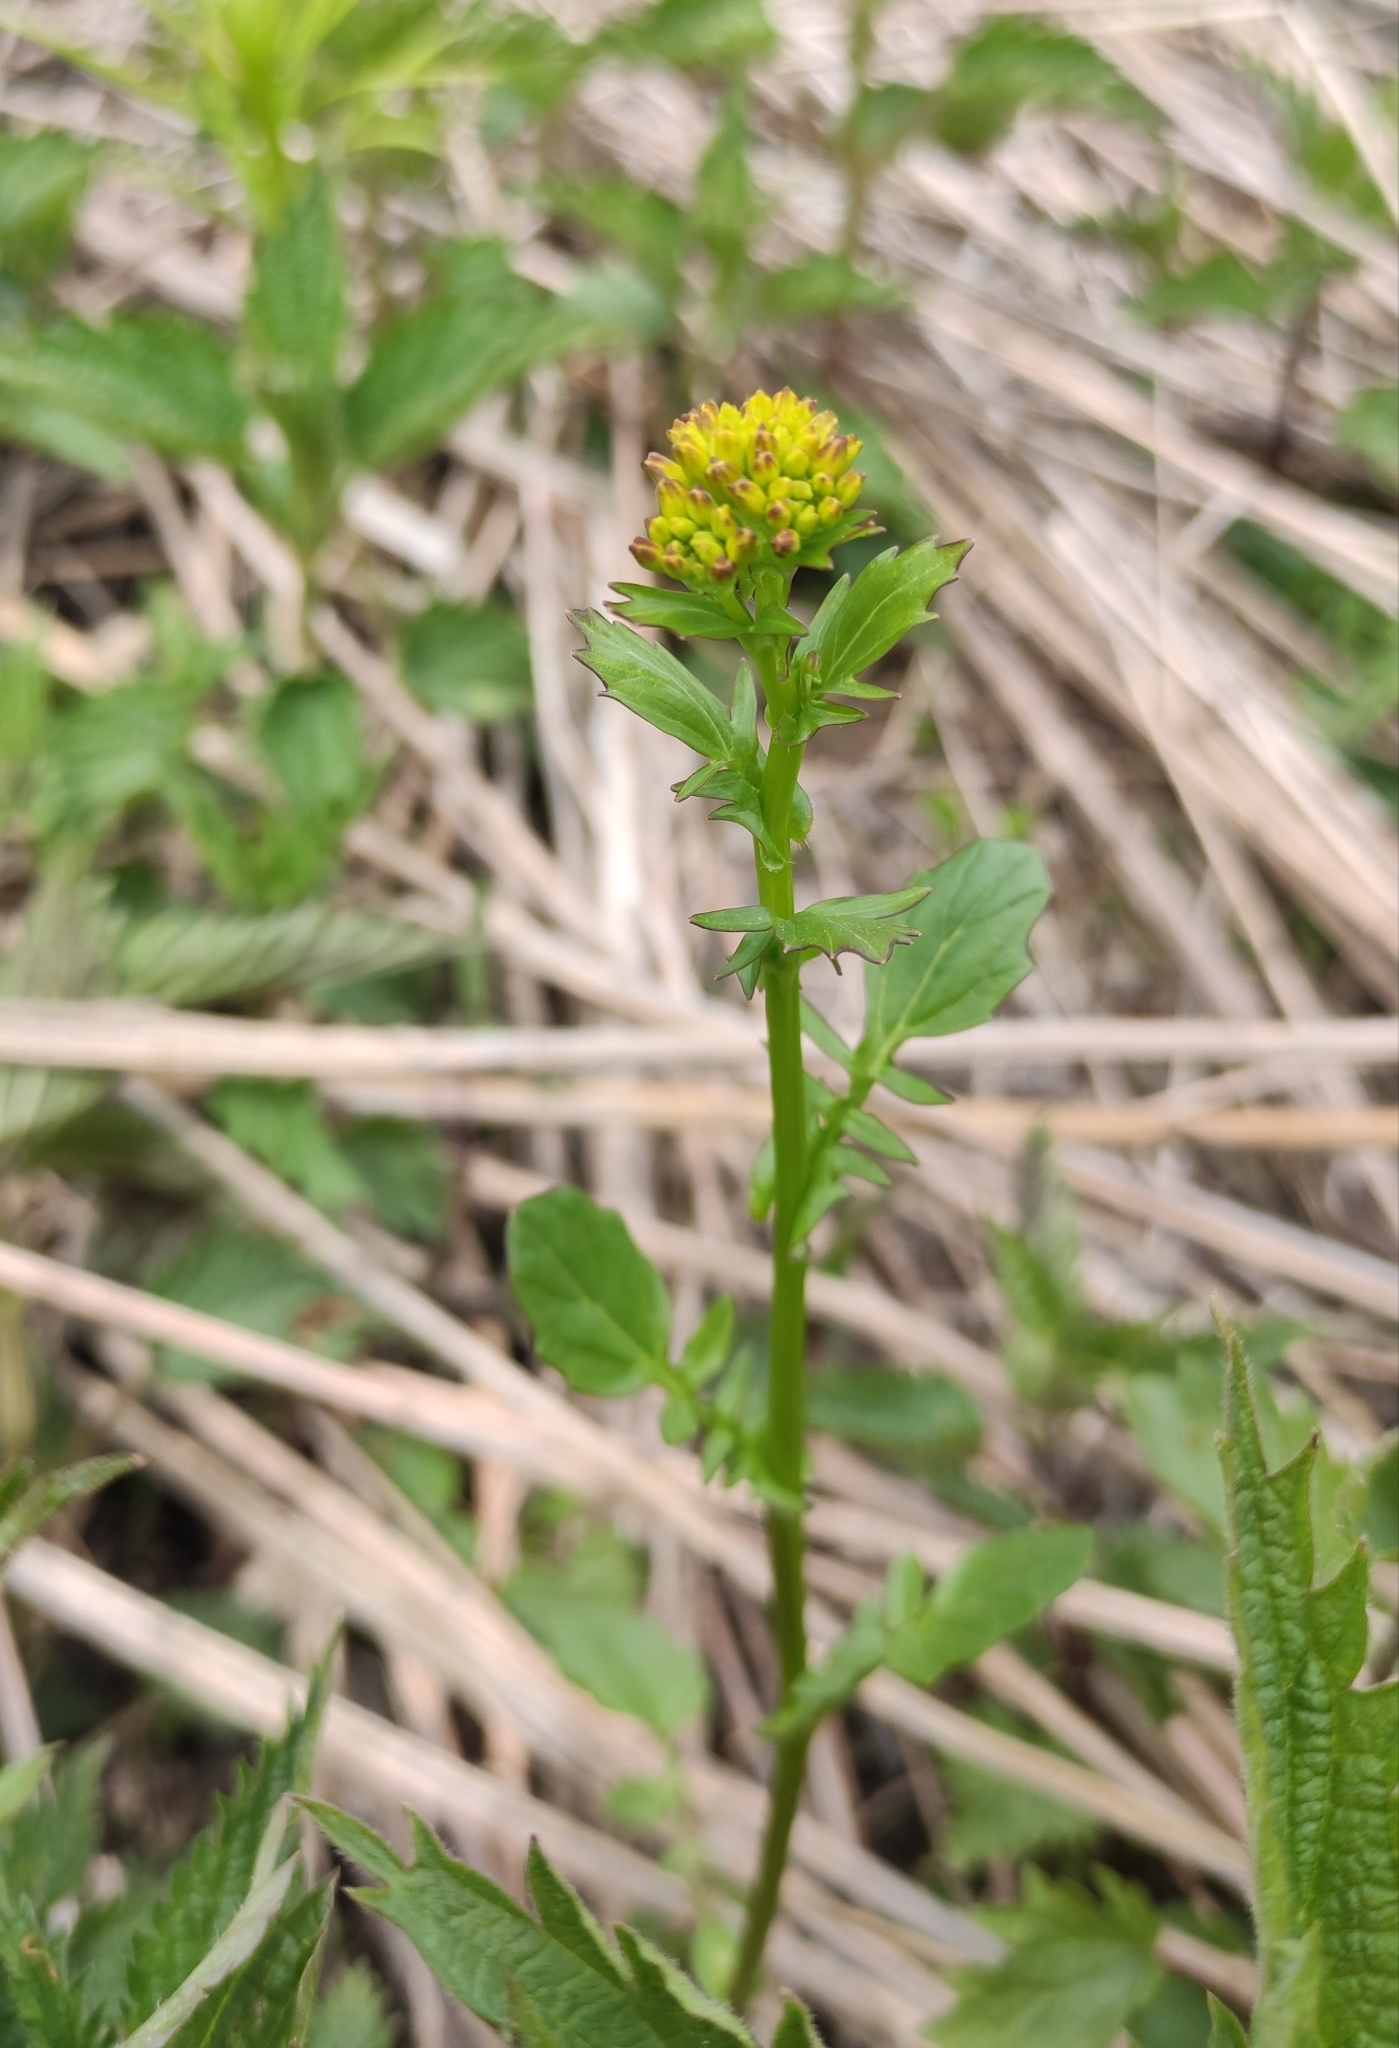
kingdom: Plantae
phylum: Tracheophyta
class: Magnoliopsida
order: Brassicales
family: Brassicaceae
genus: Barbarea
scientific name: Barbarea vulgaris
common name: Cressy-greens
